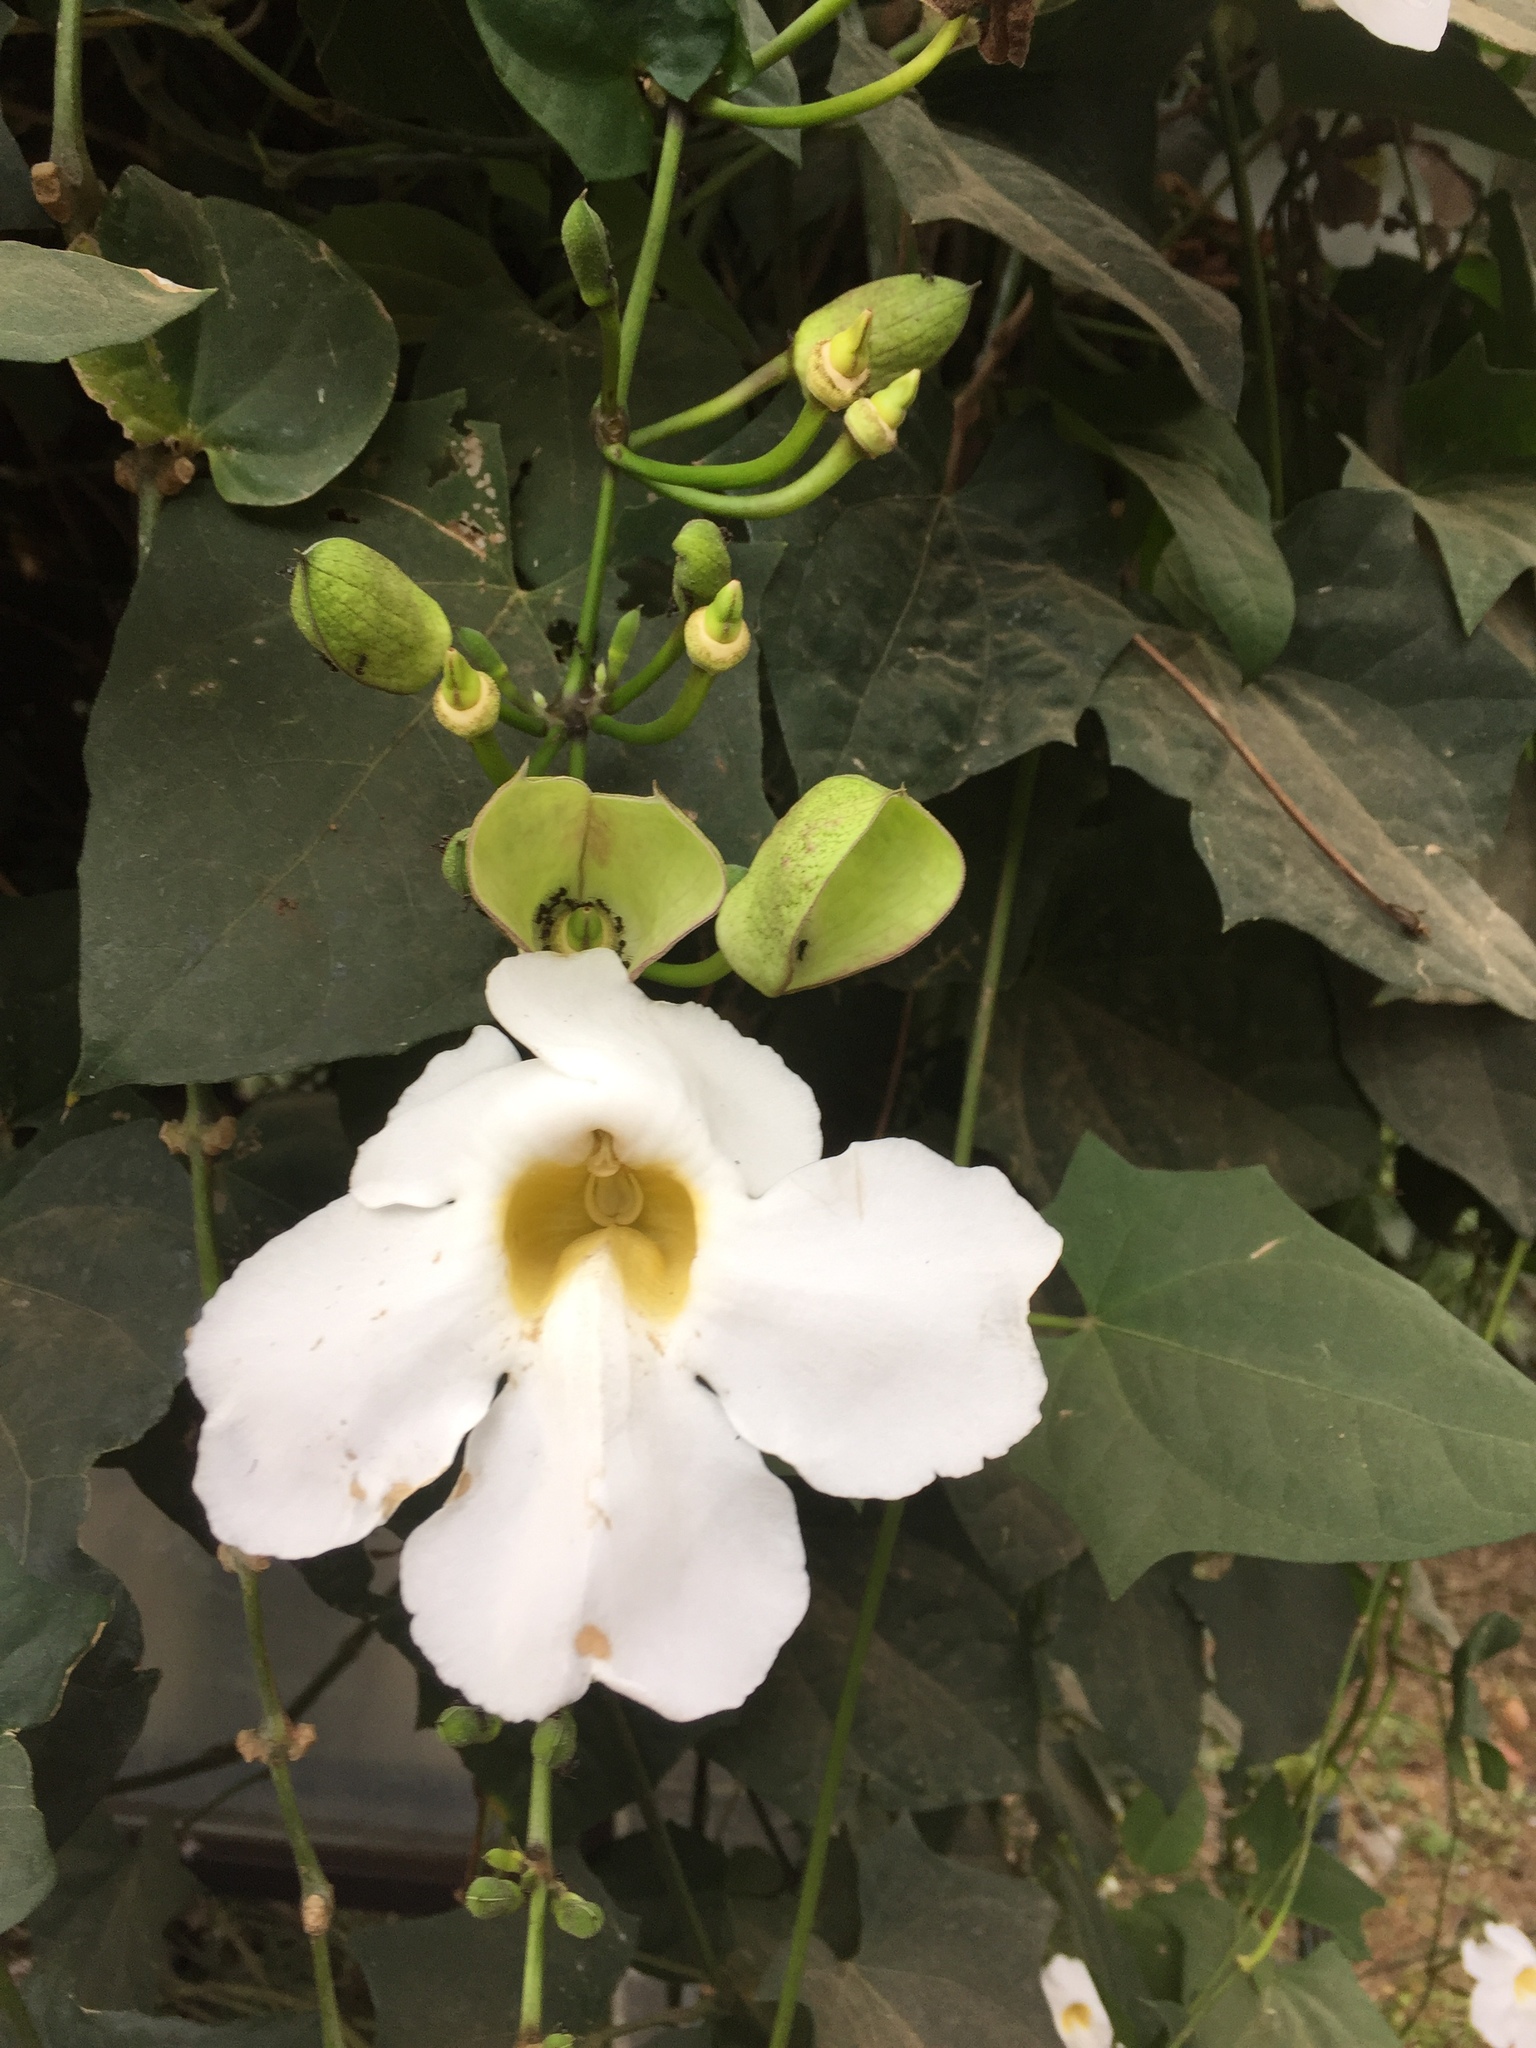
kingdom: Plantae
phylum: Tracheophyta
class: Magnoliopsida
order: Lamiales
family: Acanthaceae
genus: Thunbergia
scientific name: Thunbergia laurifolia
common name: Laurel-leaved thunbergia
